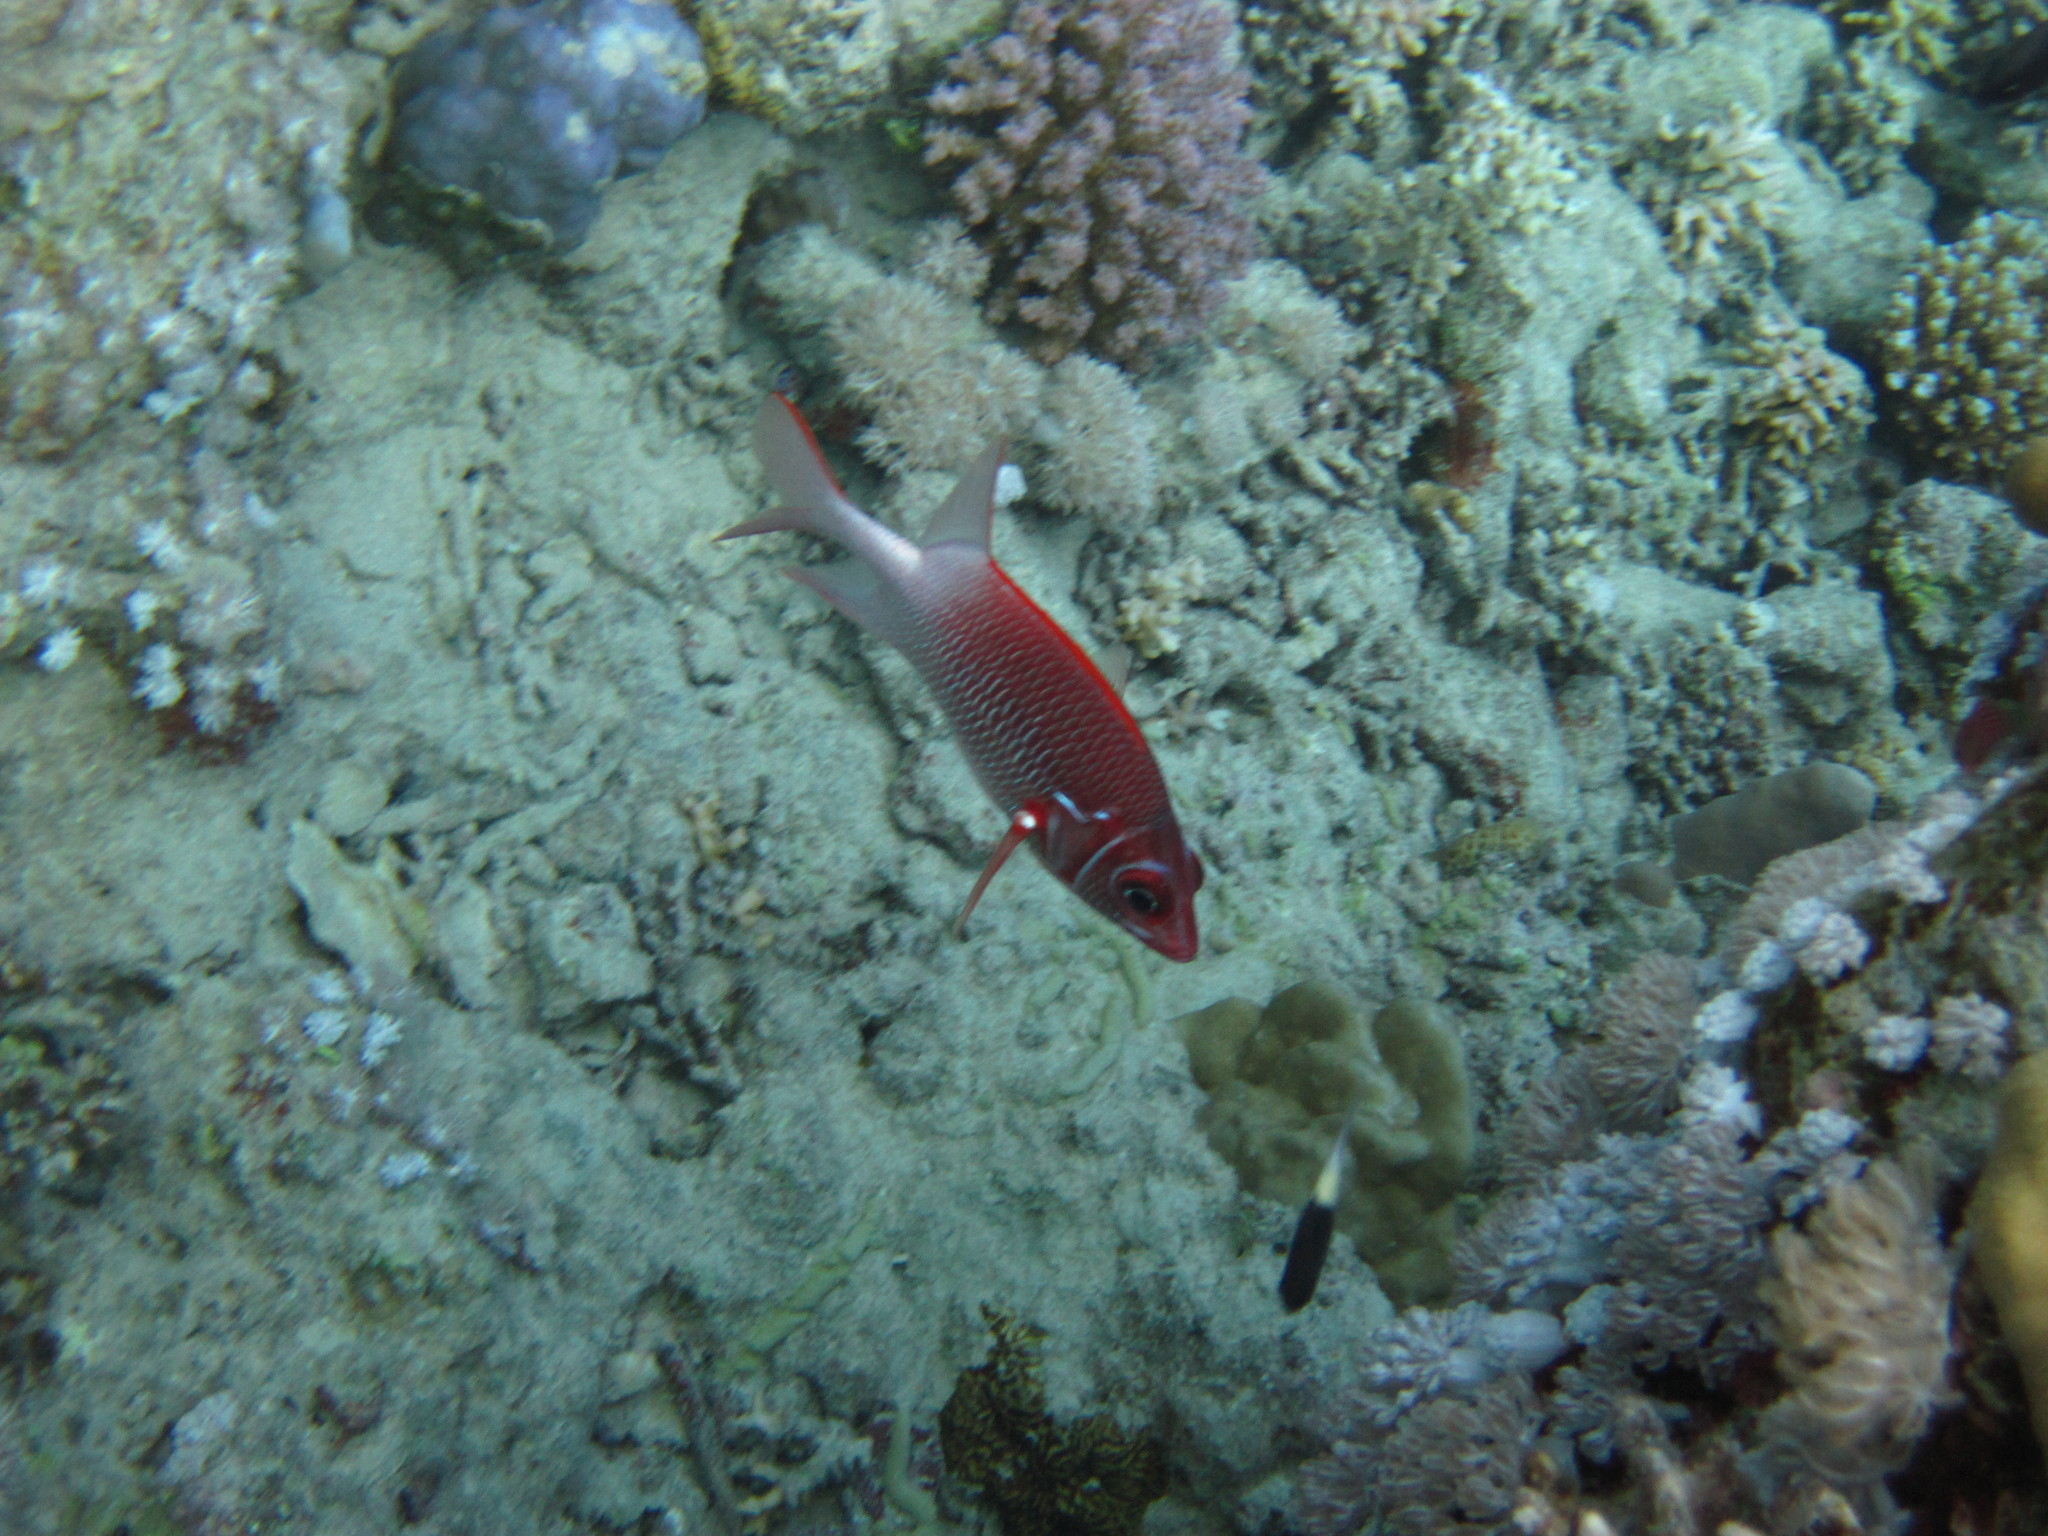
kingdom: Animalia
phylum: Chordata
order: Beryciformes
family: Holocentridae
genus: Sargocentron
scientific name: Sargocentron caudimaculatum
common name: Fanfin soldier
